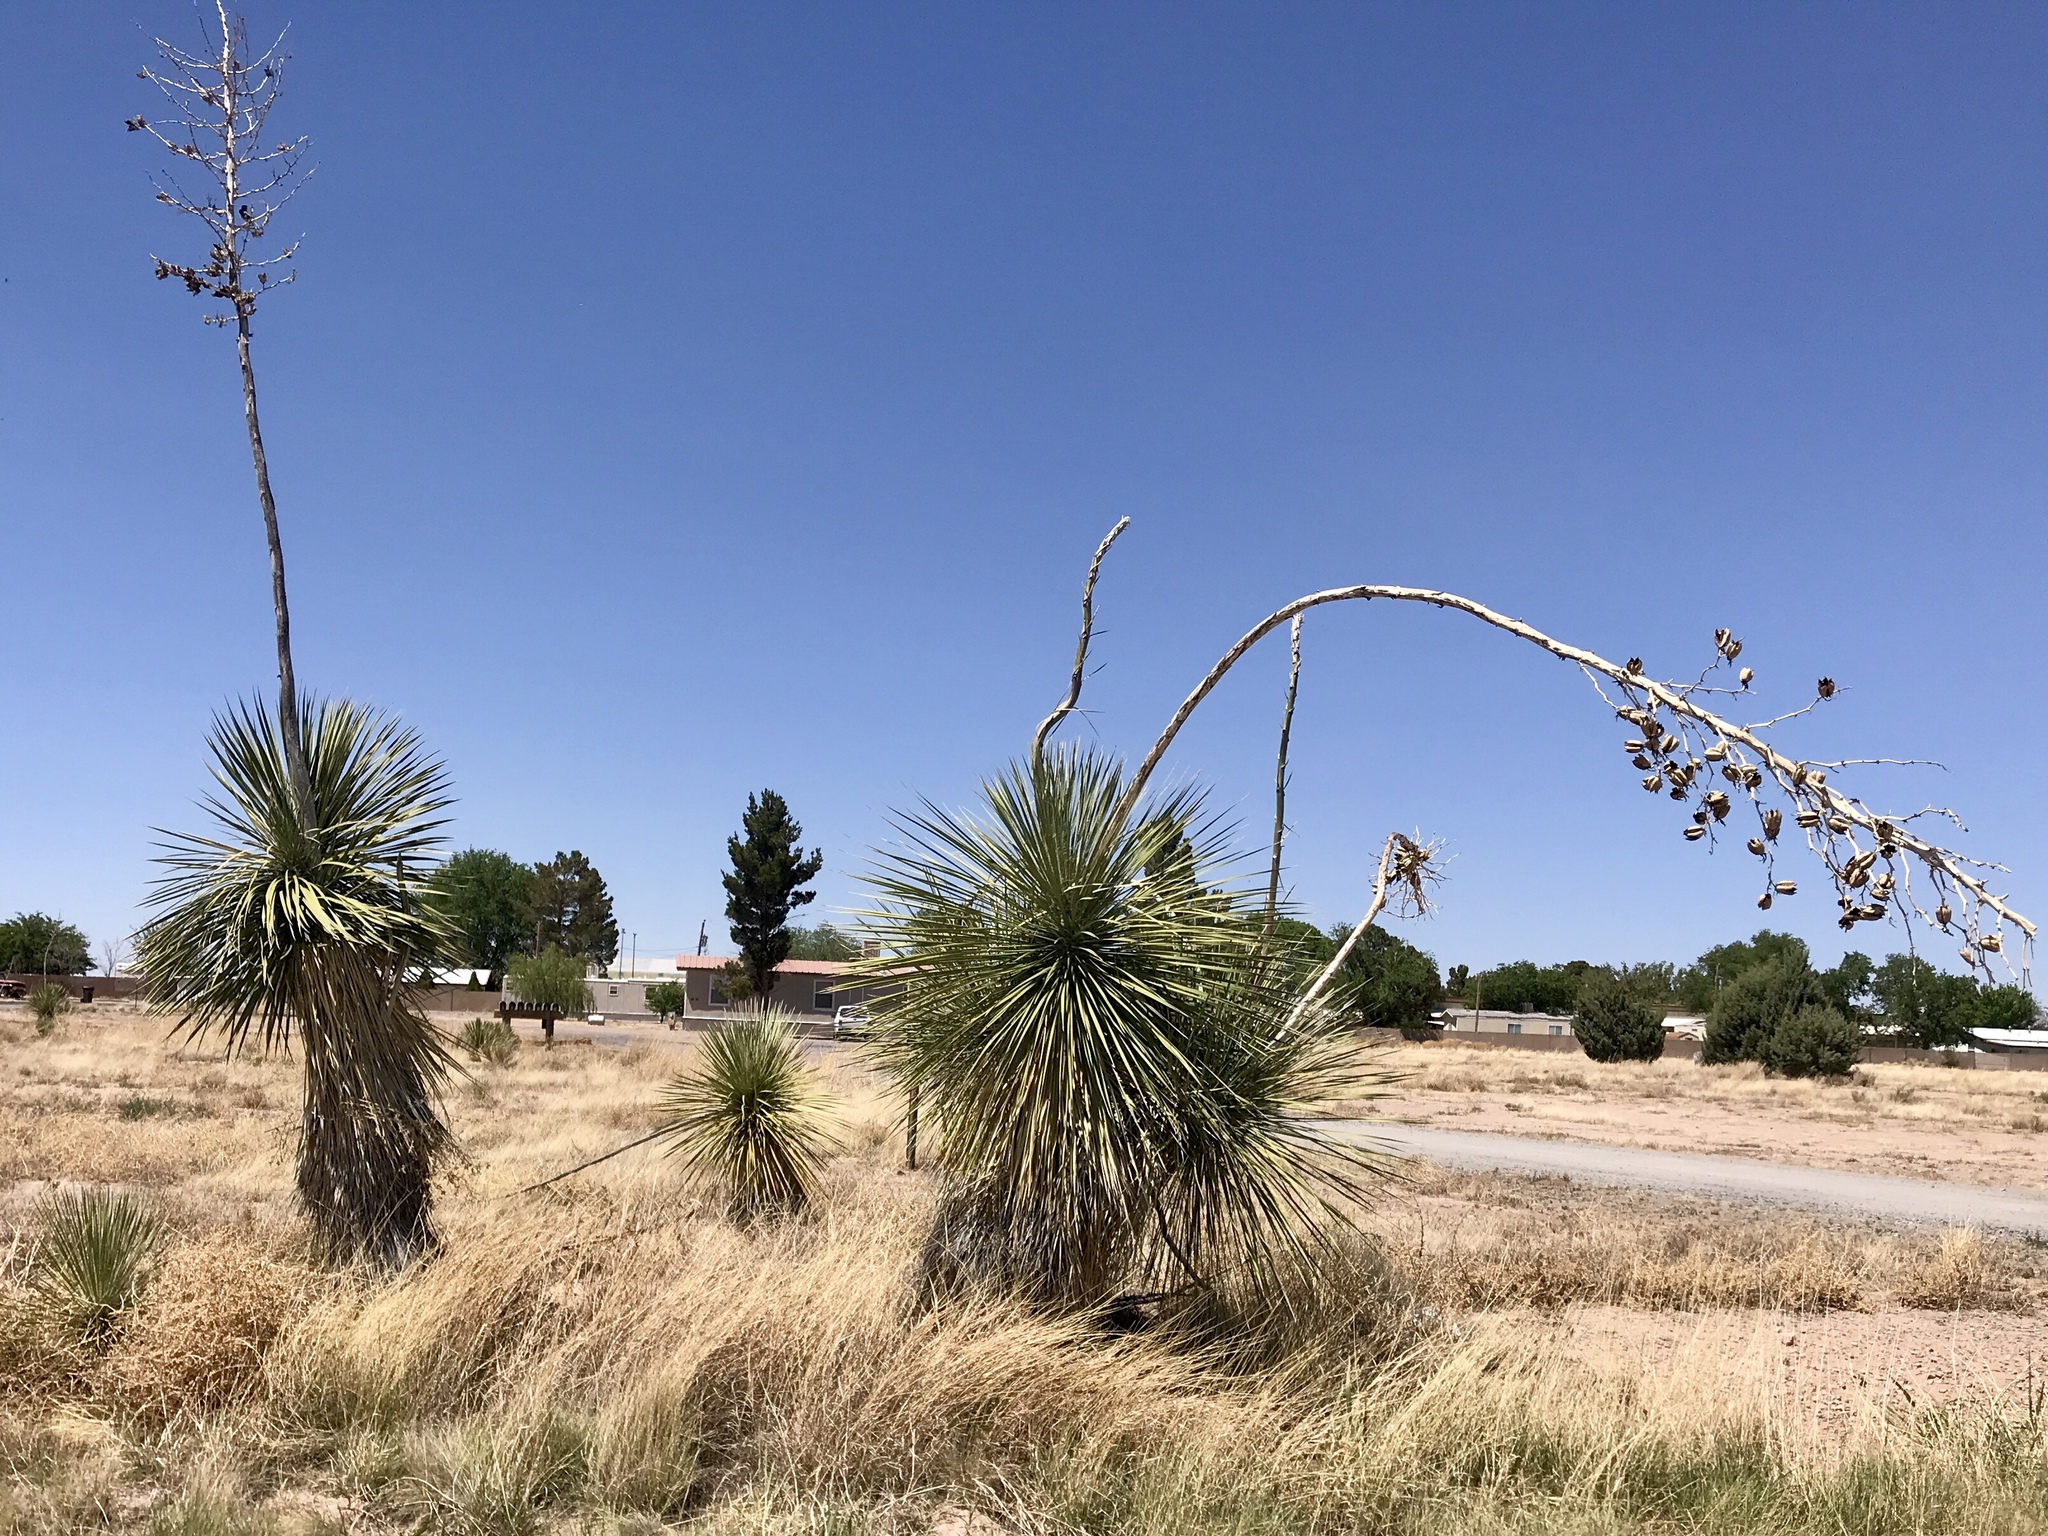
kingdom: Plantae
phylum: Tracheophyta
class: Liliopsida
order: Asparagales
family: Asparagaceae
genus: Yucca
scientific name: Yucca elata
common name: Palmella
